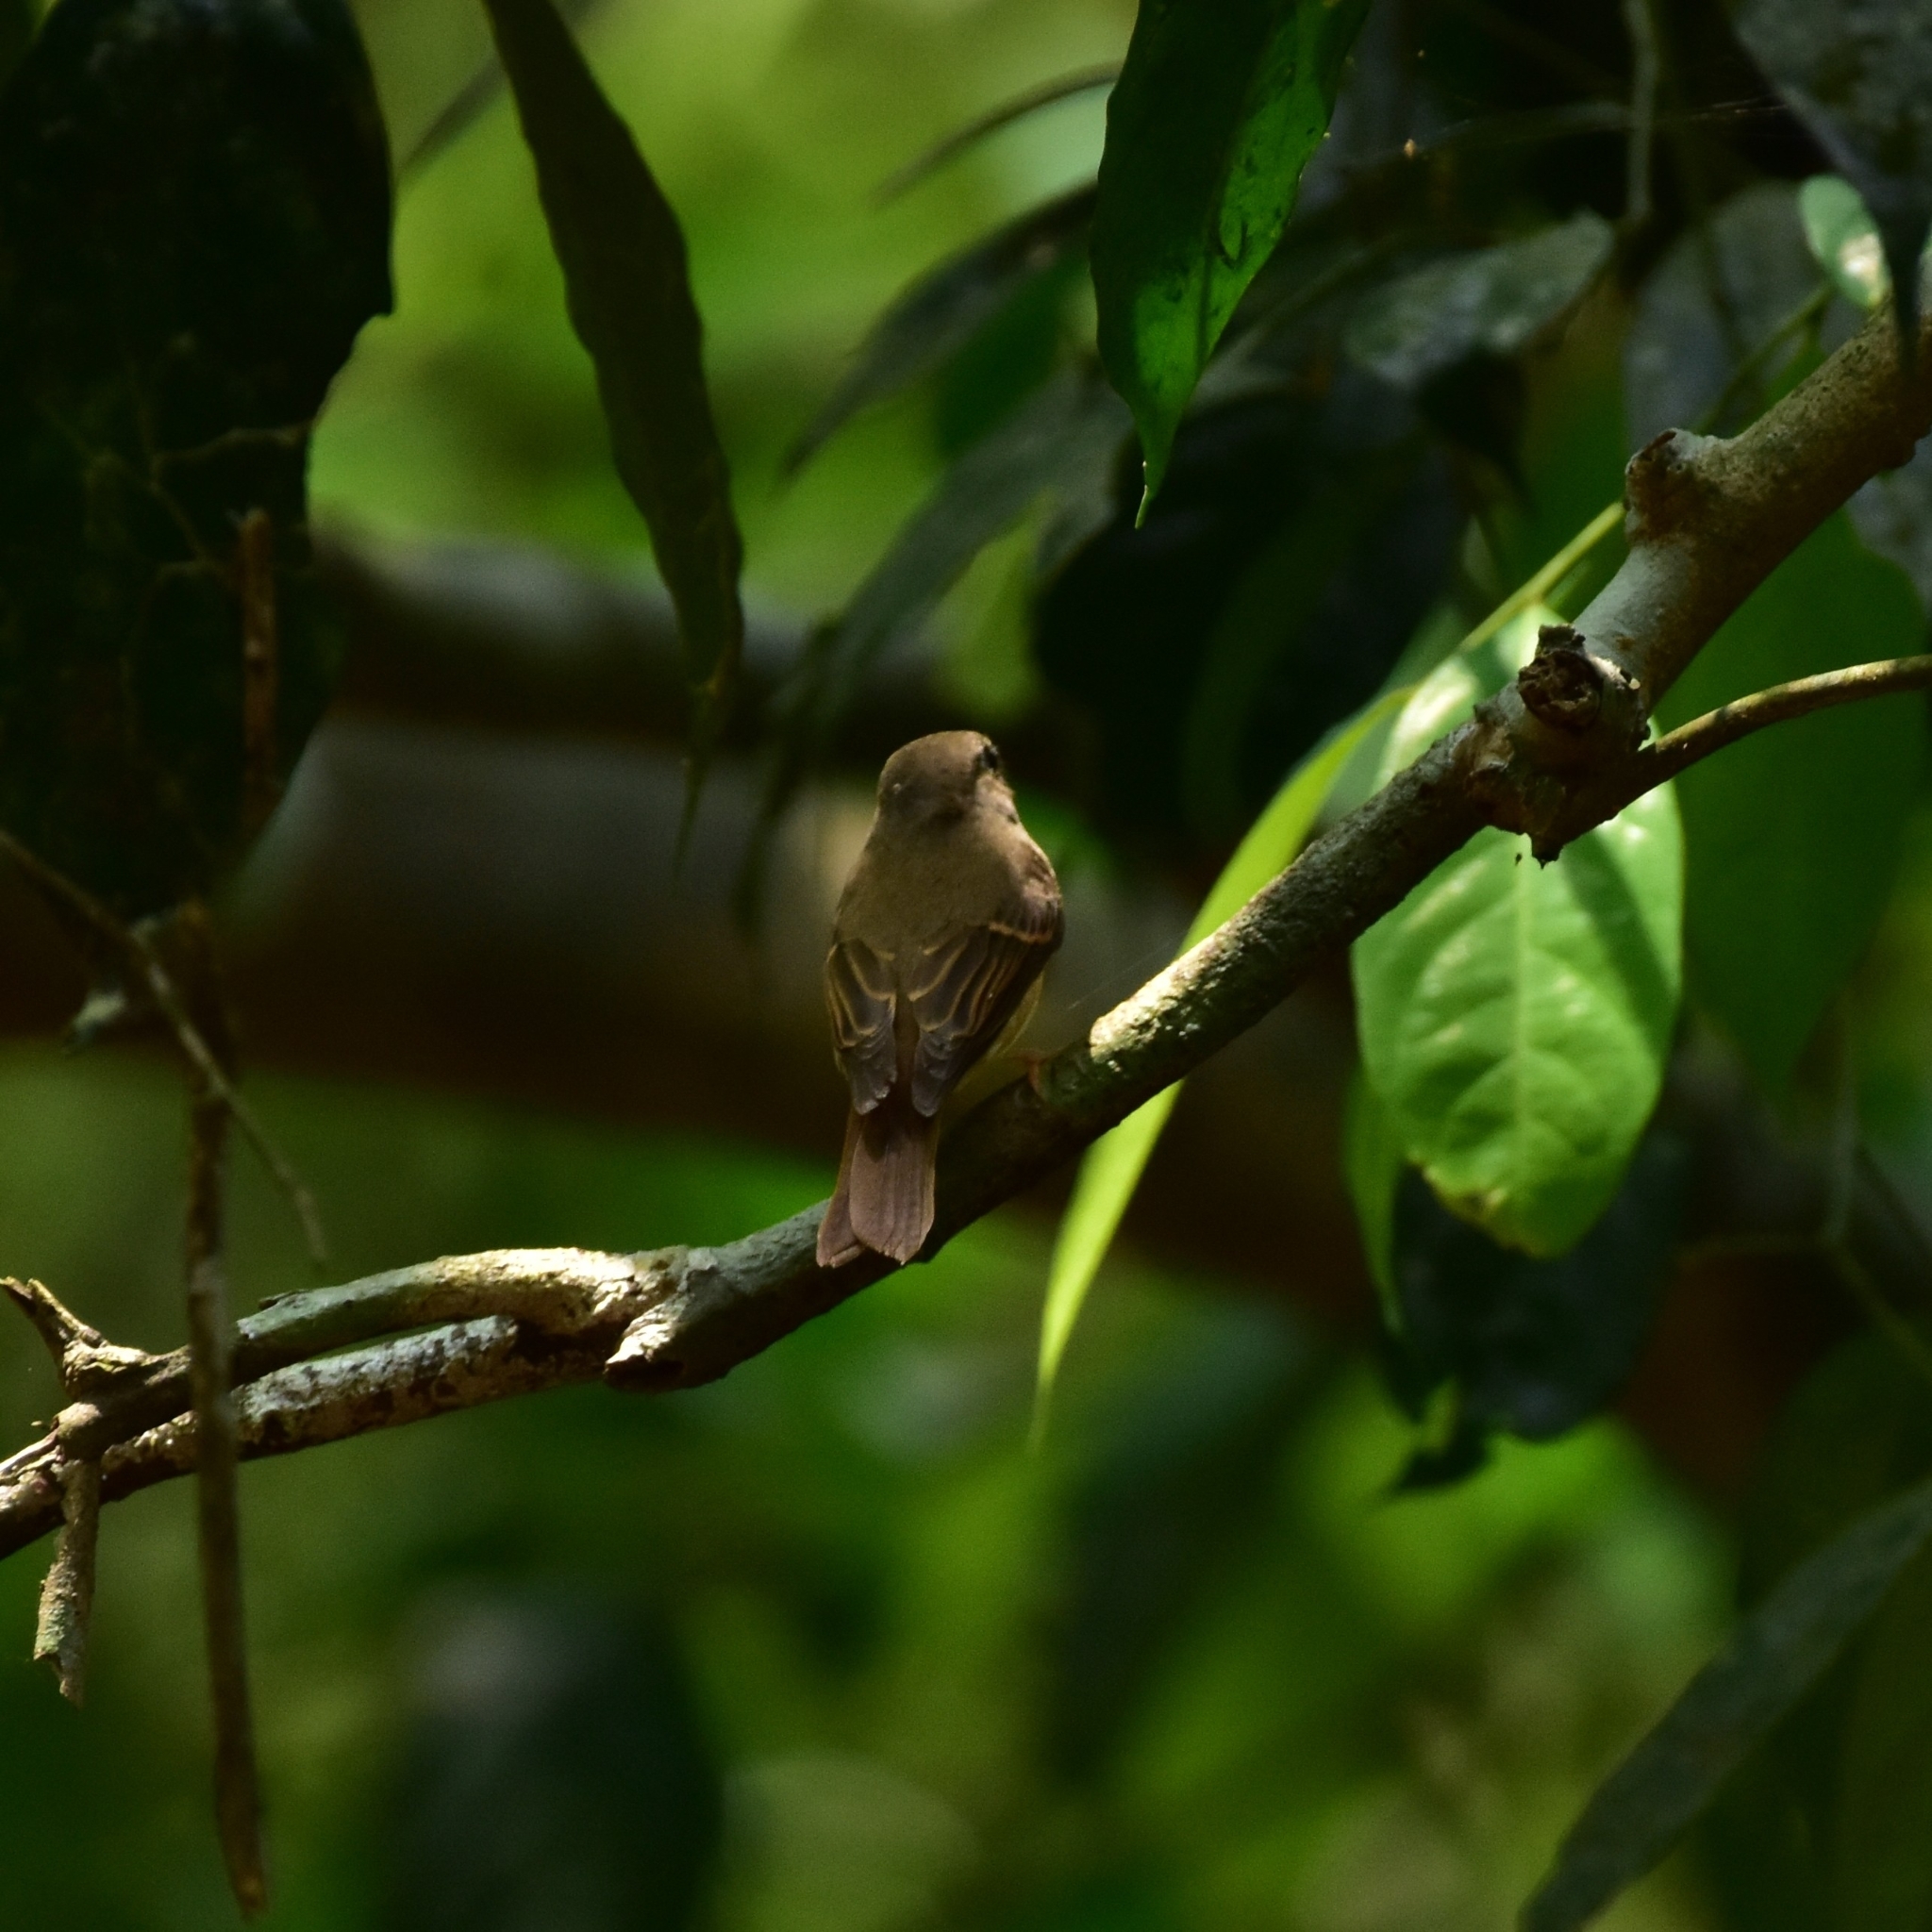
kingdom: Animalia
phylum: Chordata
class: Aves
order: Passeriformes
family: Muscicapidae
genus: Muscicapa
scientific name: Muscicapa muttui
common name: Brown-breasted flycatcher
